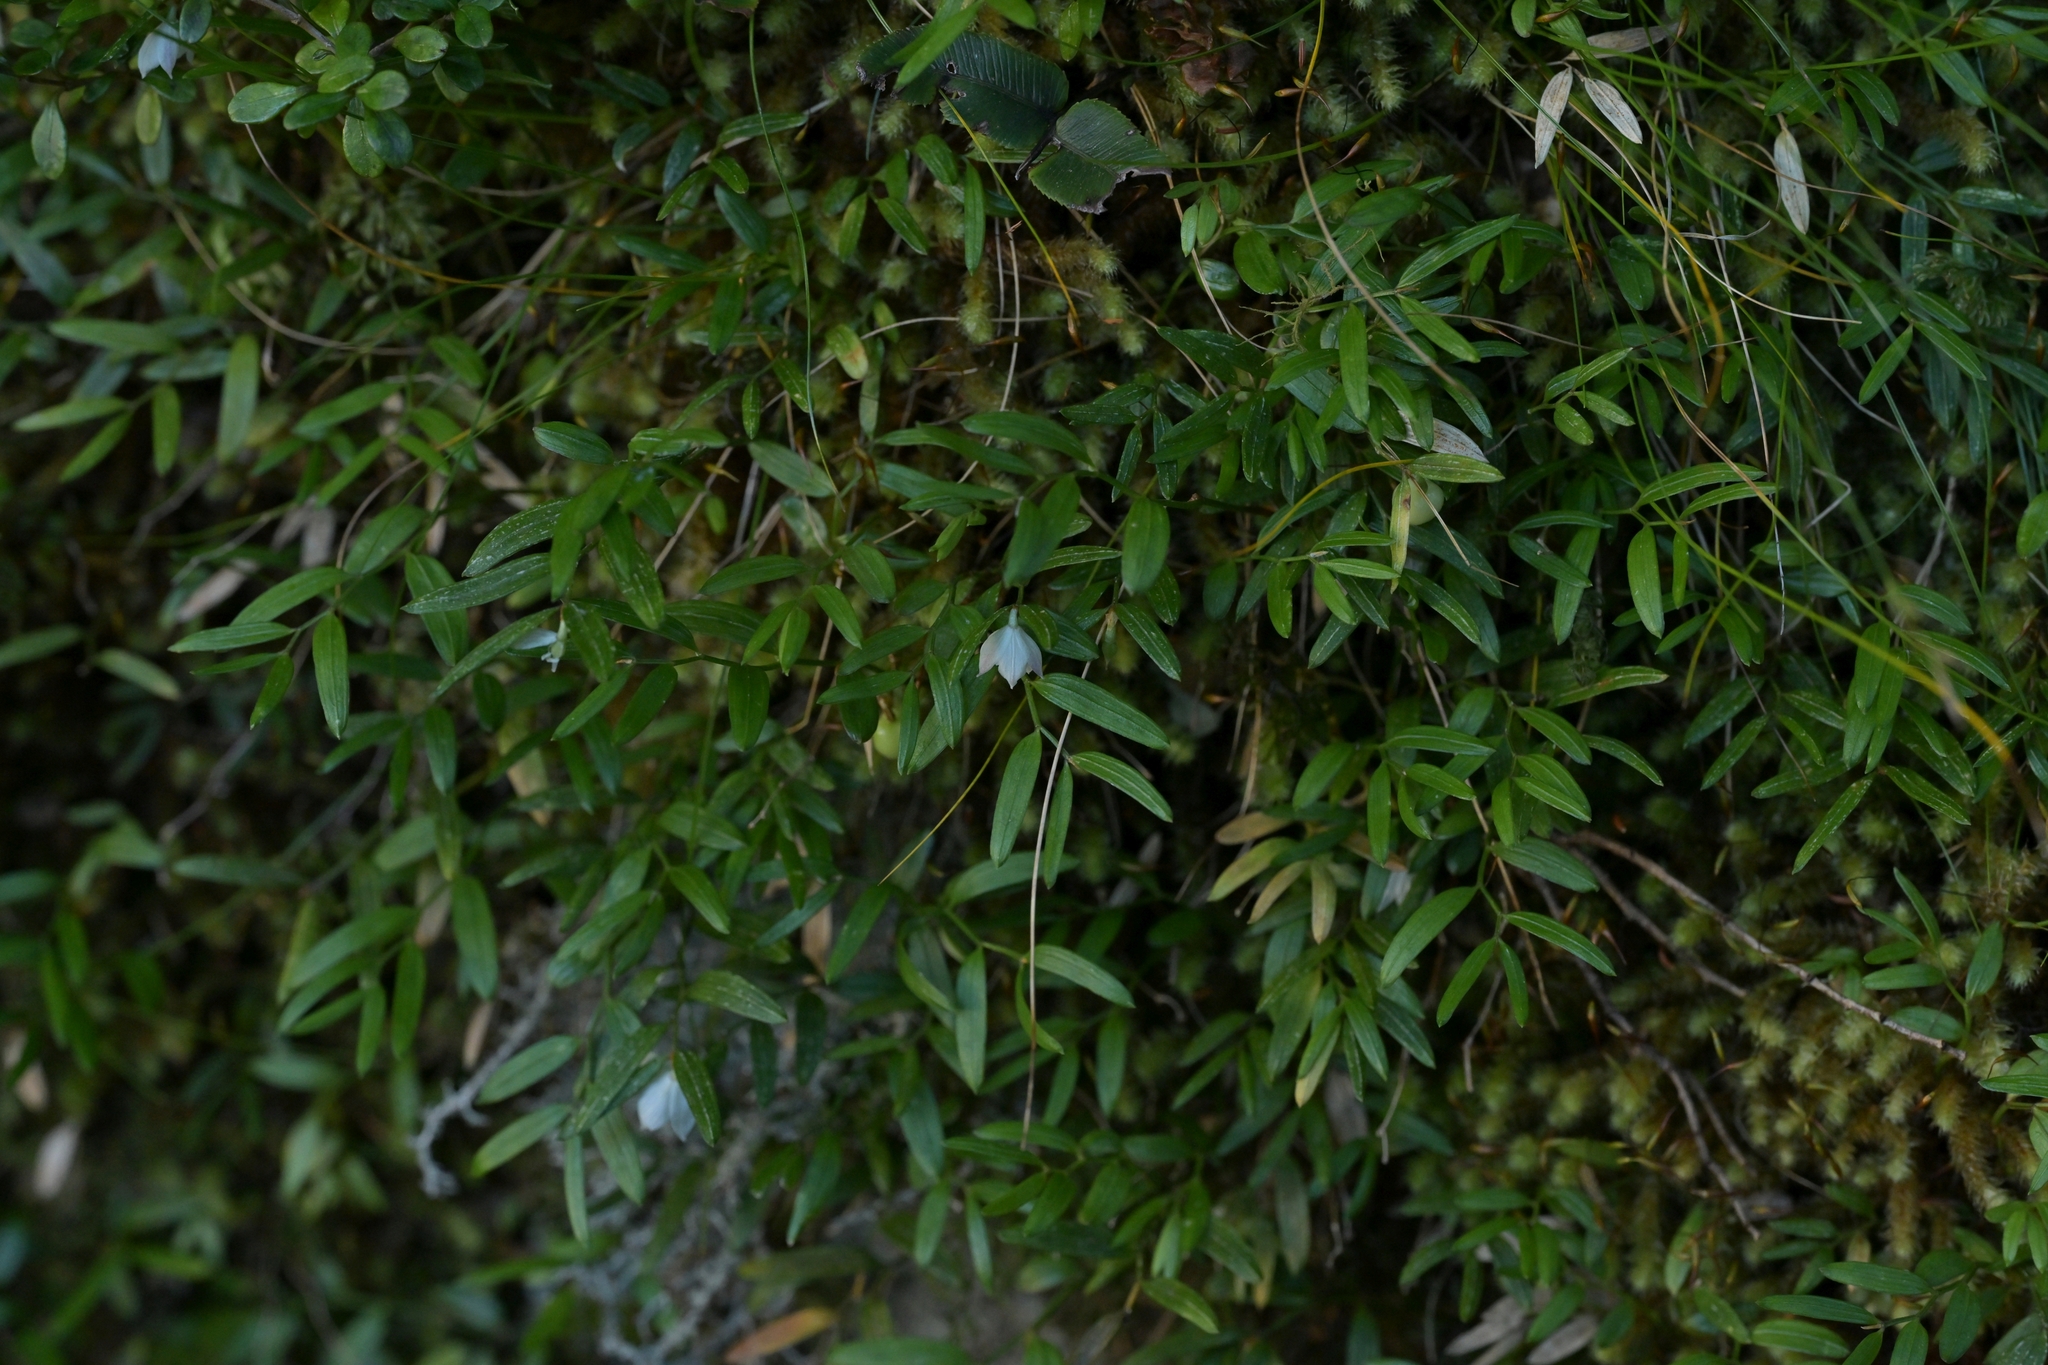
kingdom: Plantae
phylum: Tracheophyta
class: Liliopsida
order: Liliales
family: Alstroemeriaceae
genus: Luzuriaga
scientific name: Luzuriaga parviflora
